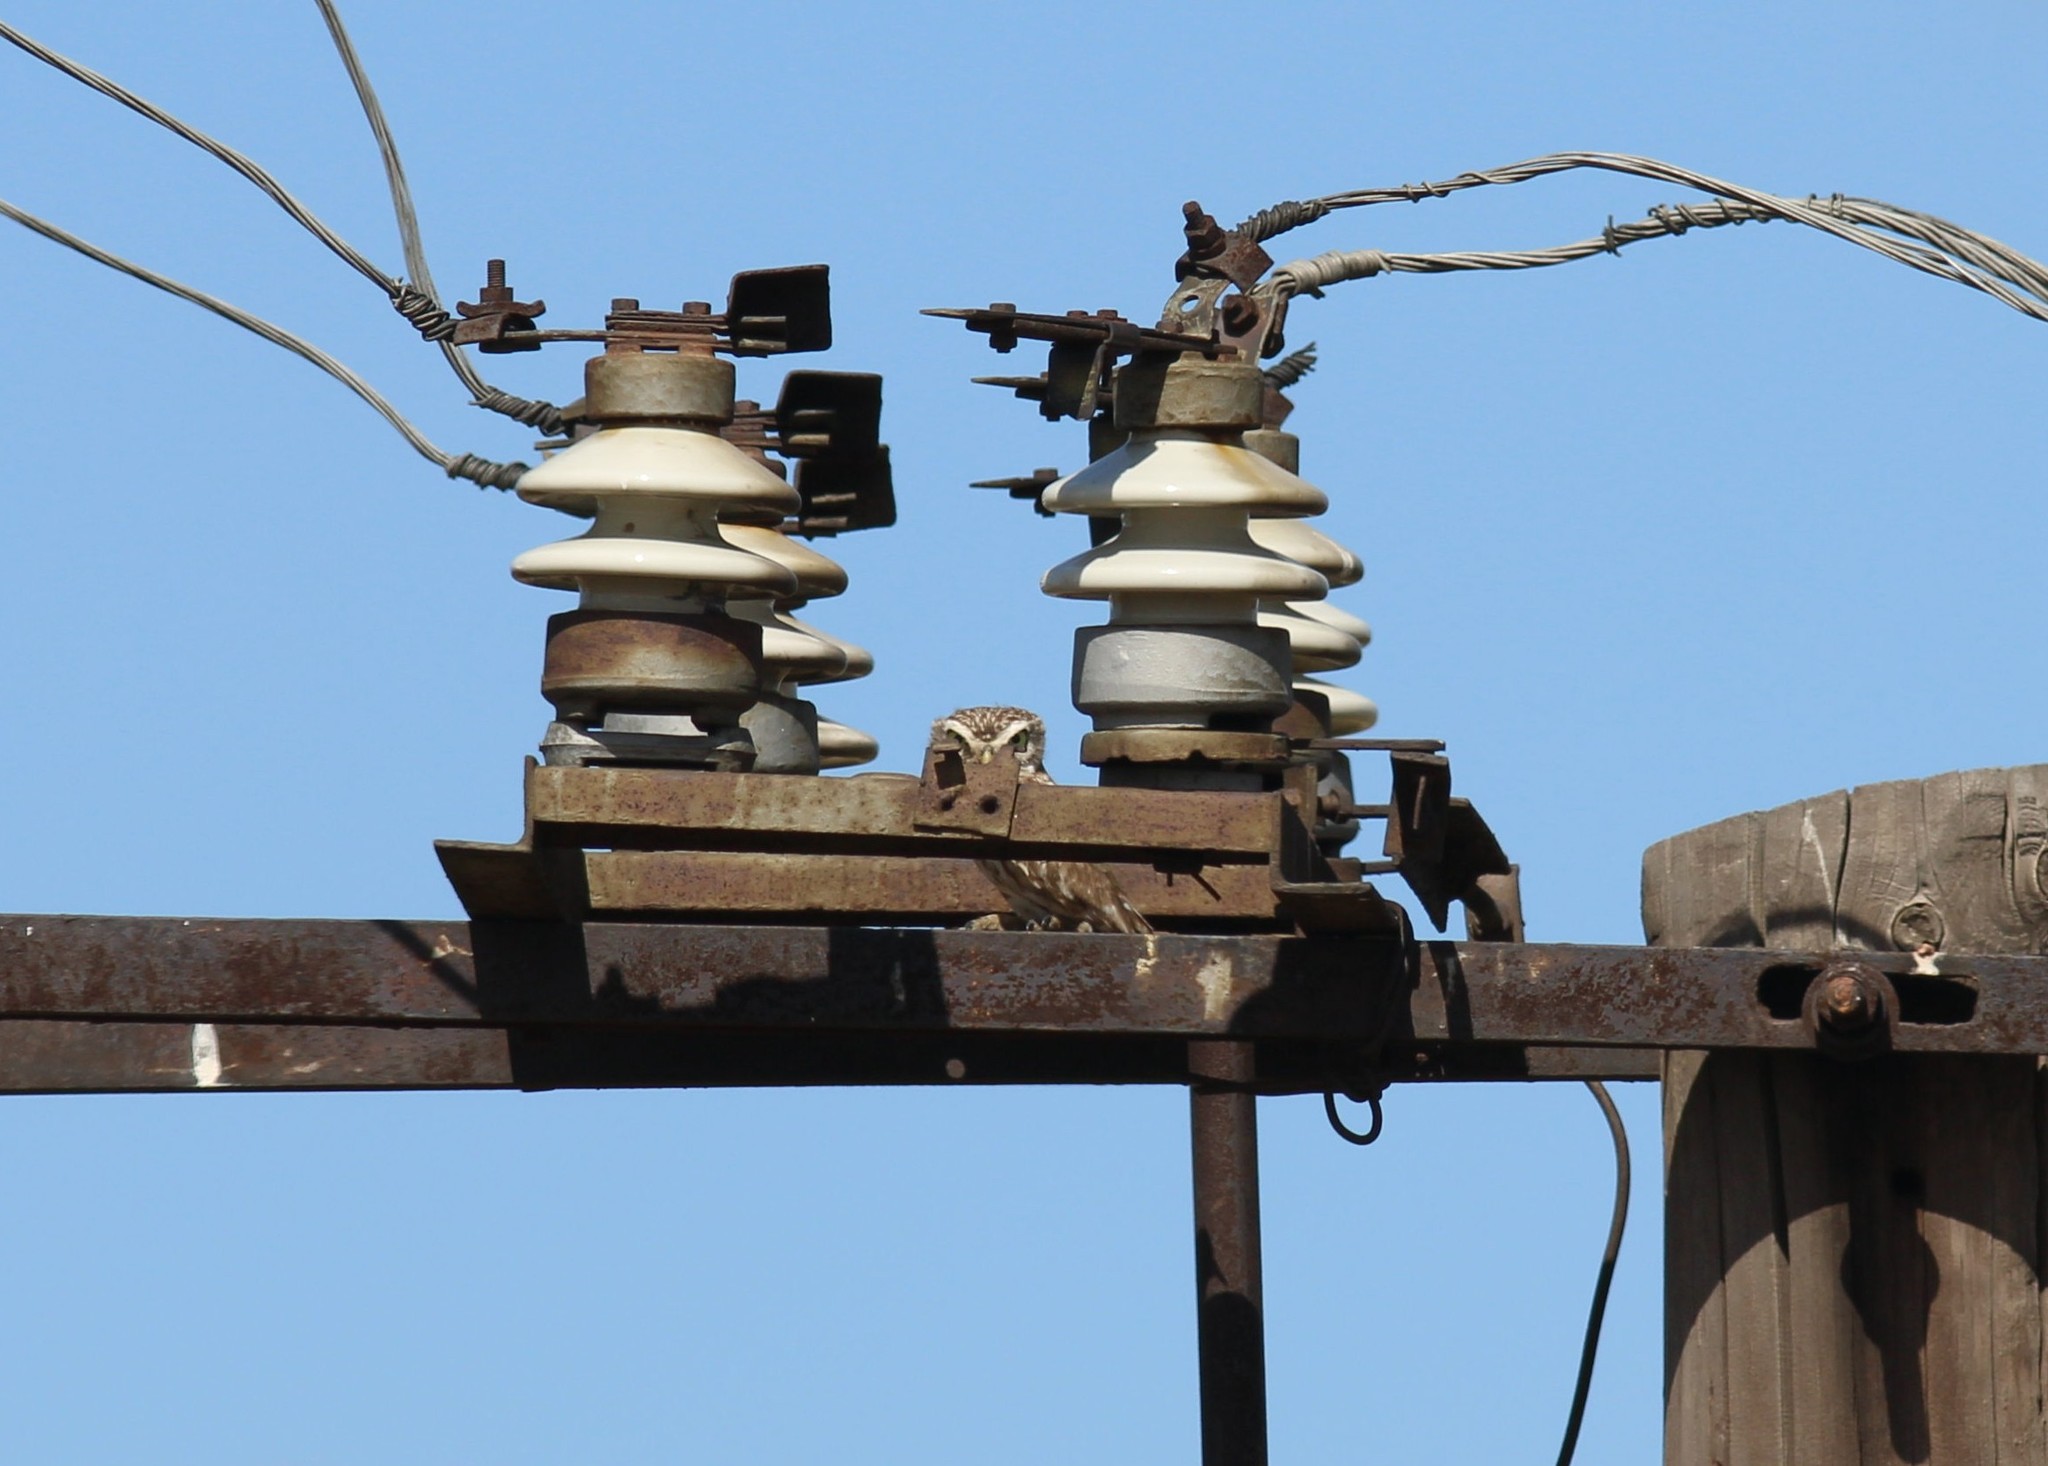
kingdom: Animalia
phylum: Chordata
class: Aves
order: Strigiformes
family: Strigidae
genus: Athene
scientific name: Athene noctua
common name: Little owl
